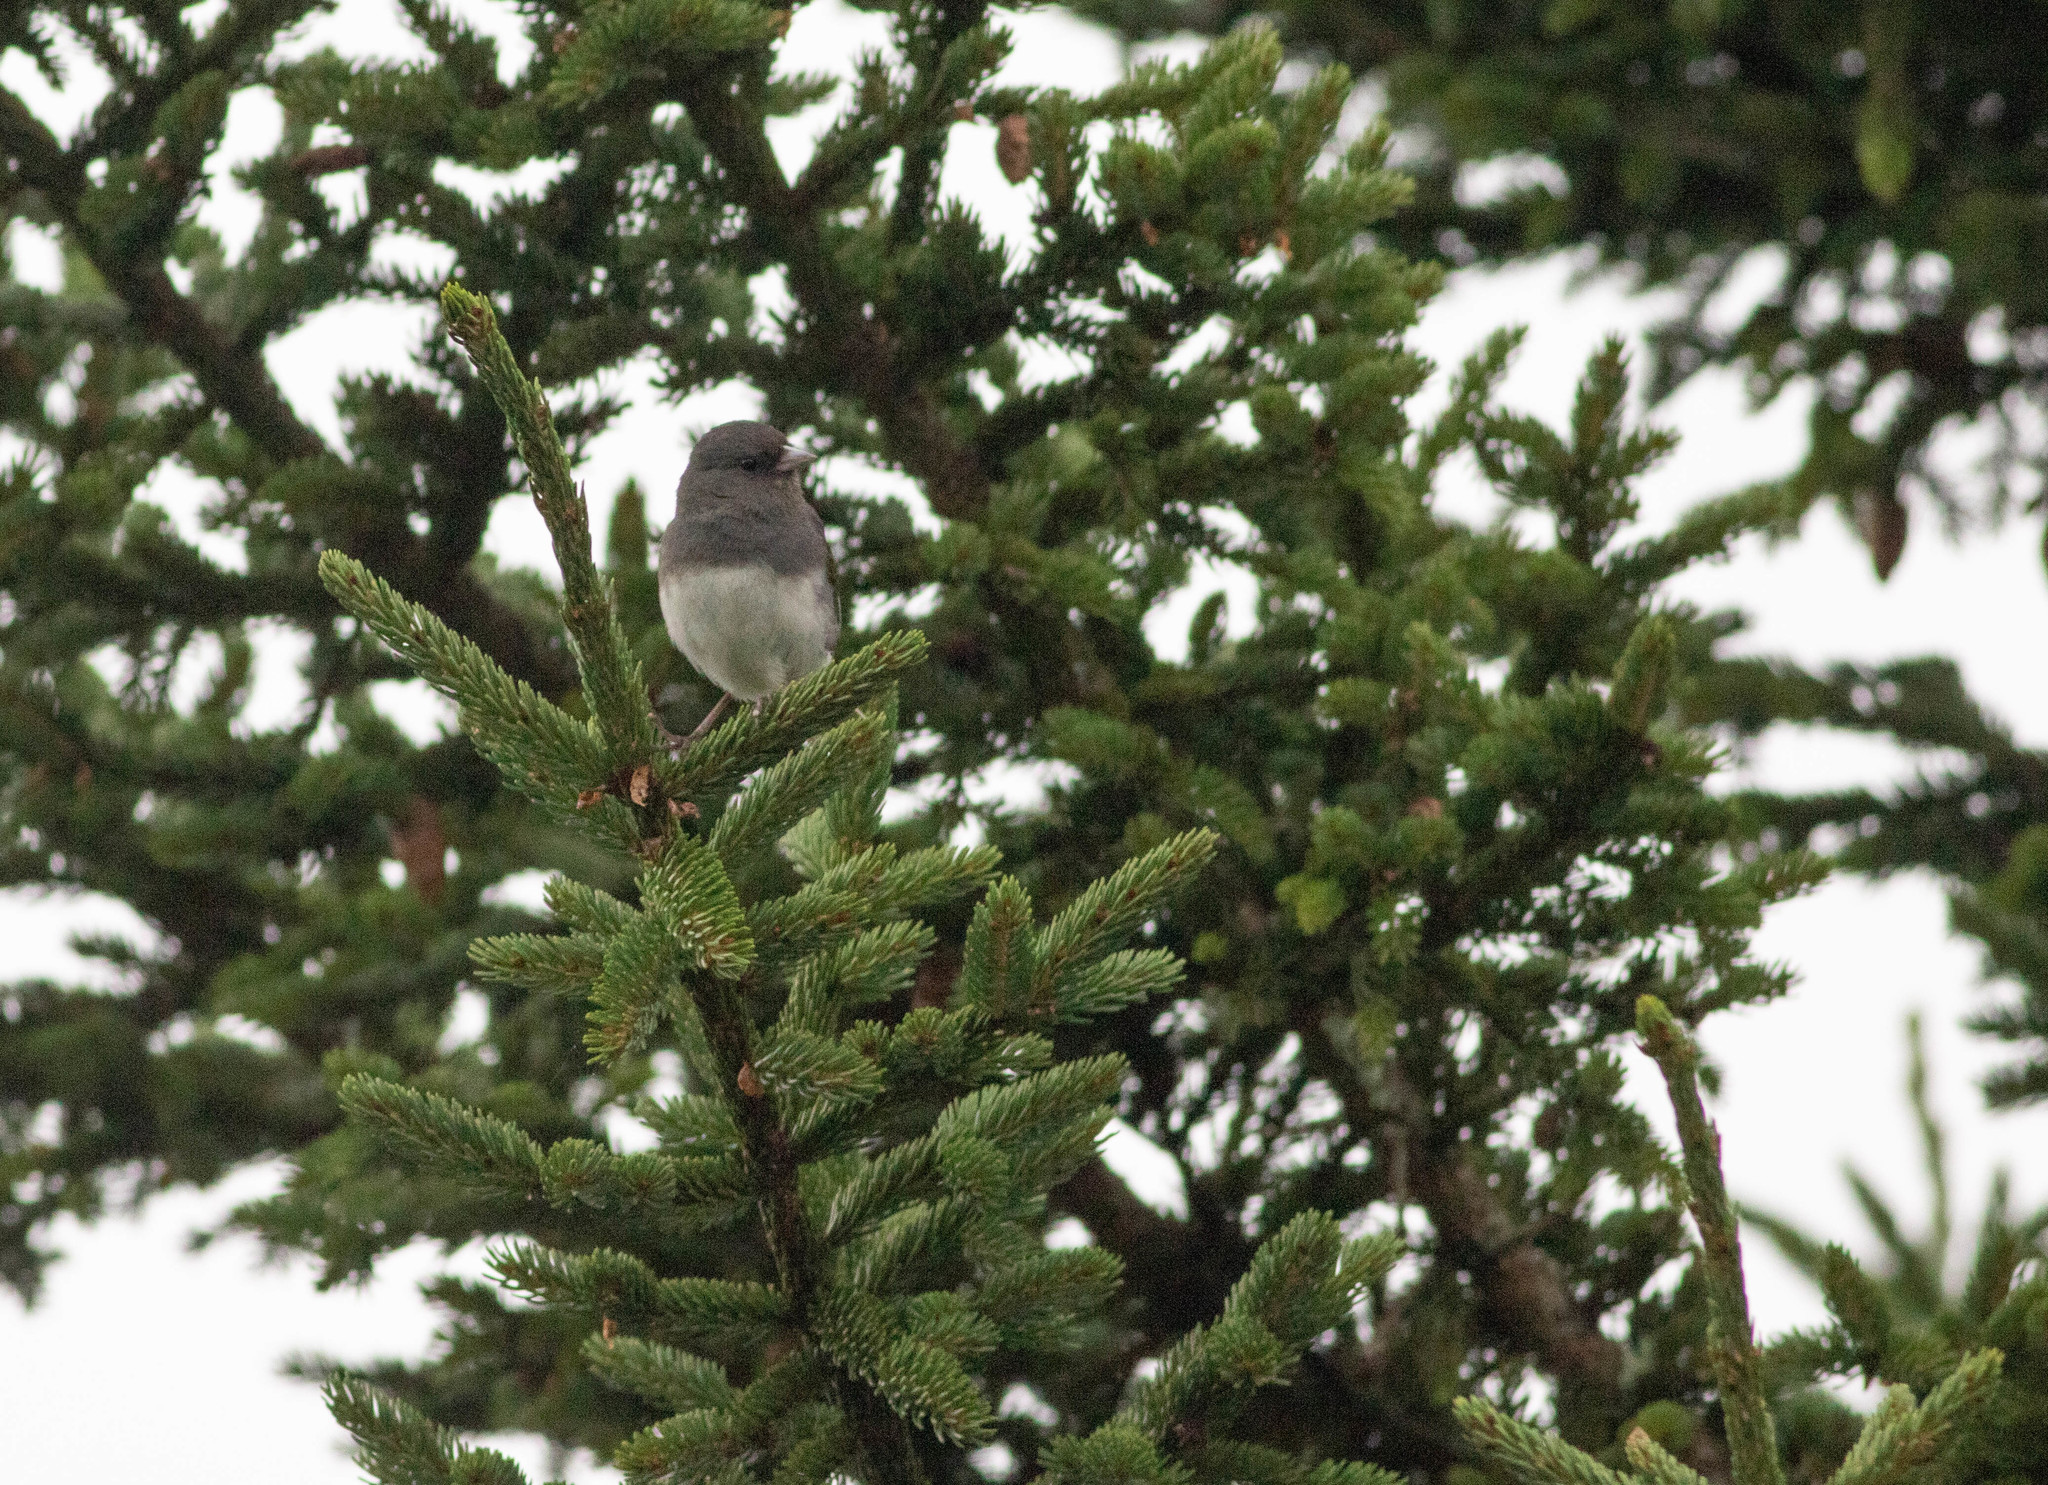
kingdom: Animalia
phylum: Chordata
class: Aves
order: Passeriformes
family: Passerellidae
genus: Junco
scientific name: Junco hyemalis
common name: Dark-eyed junco
